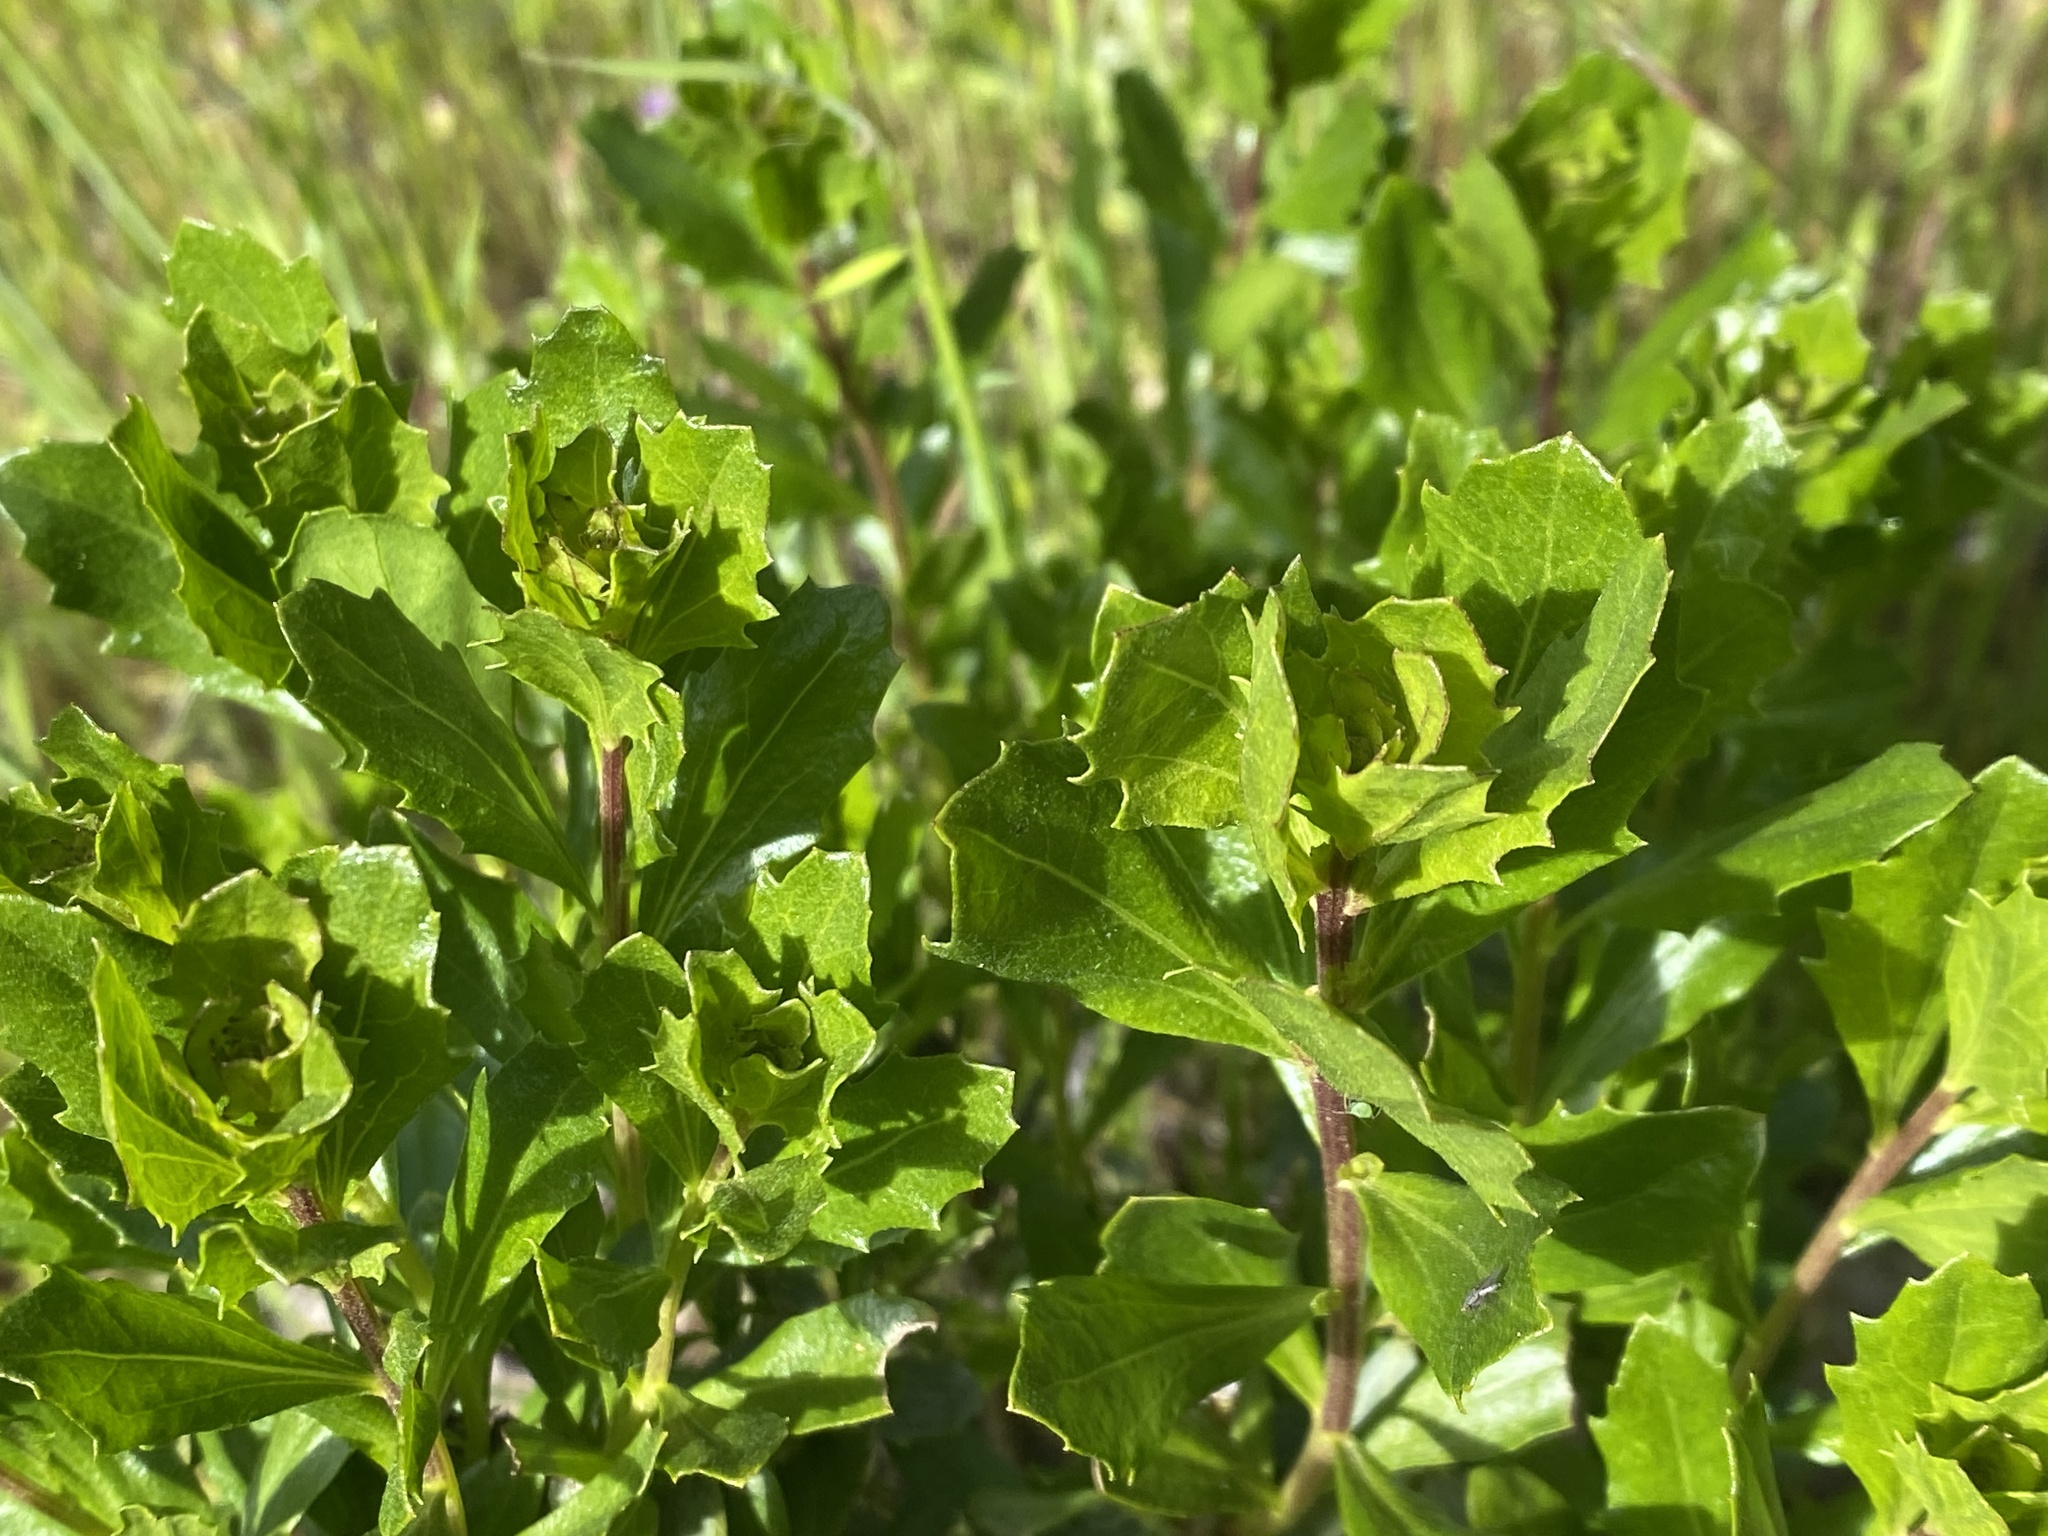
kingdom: Plantae
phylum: Tracheophyta
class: Magnoliopsida
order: Asterales
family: Asteraceae
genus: Baccharis
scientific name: Baccharis pilularis
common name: Coyotebrush
